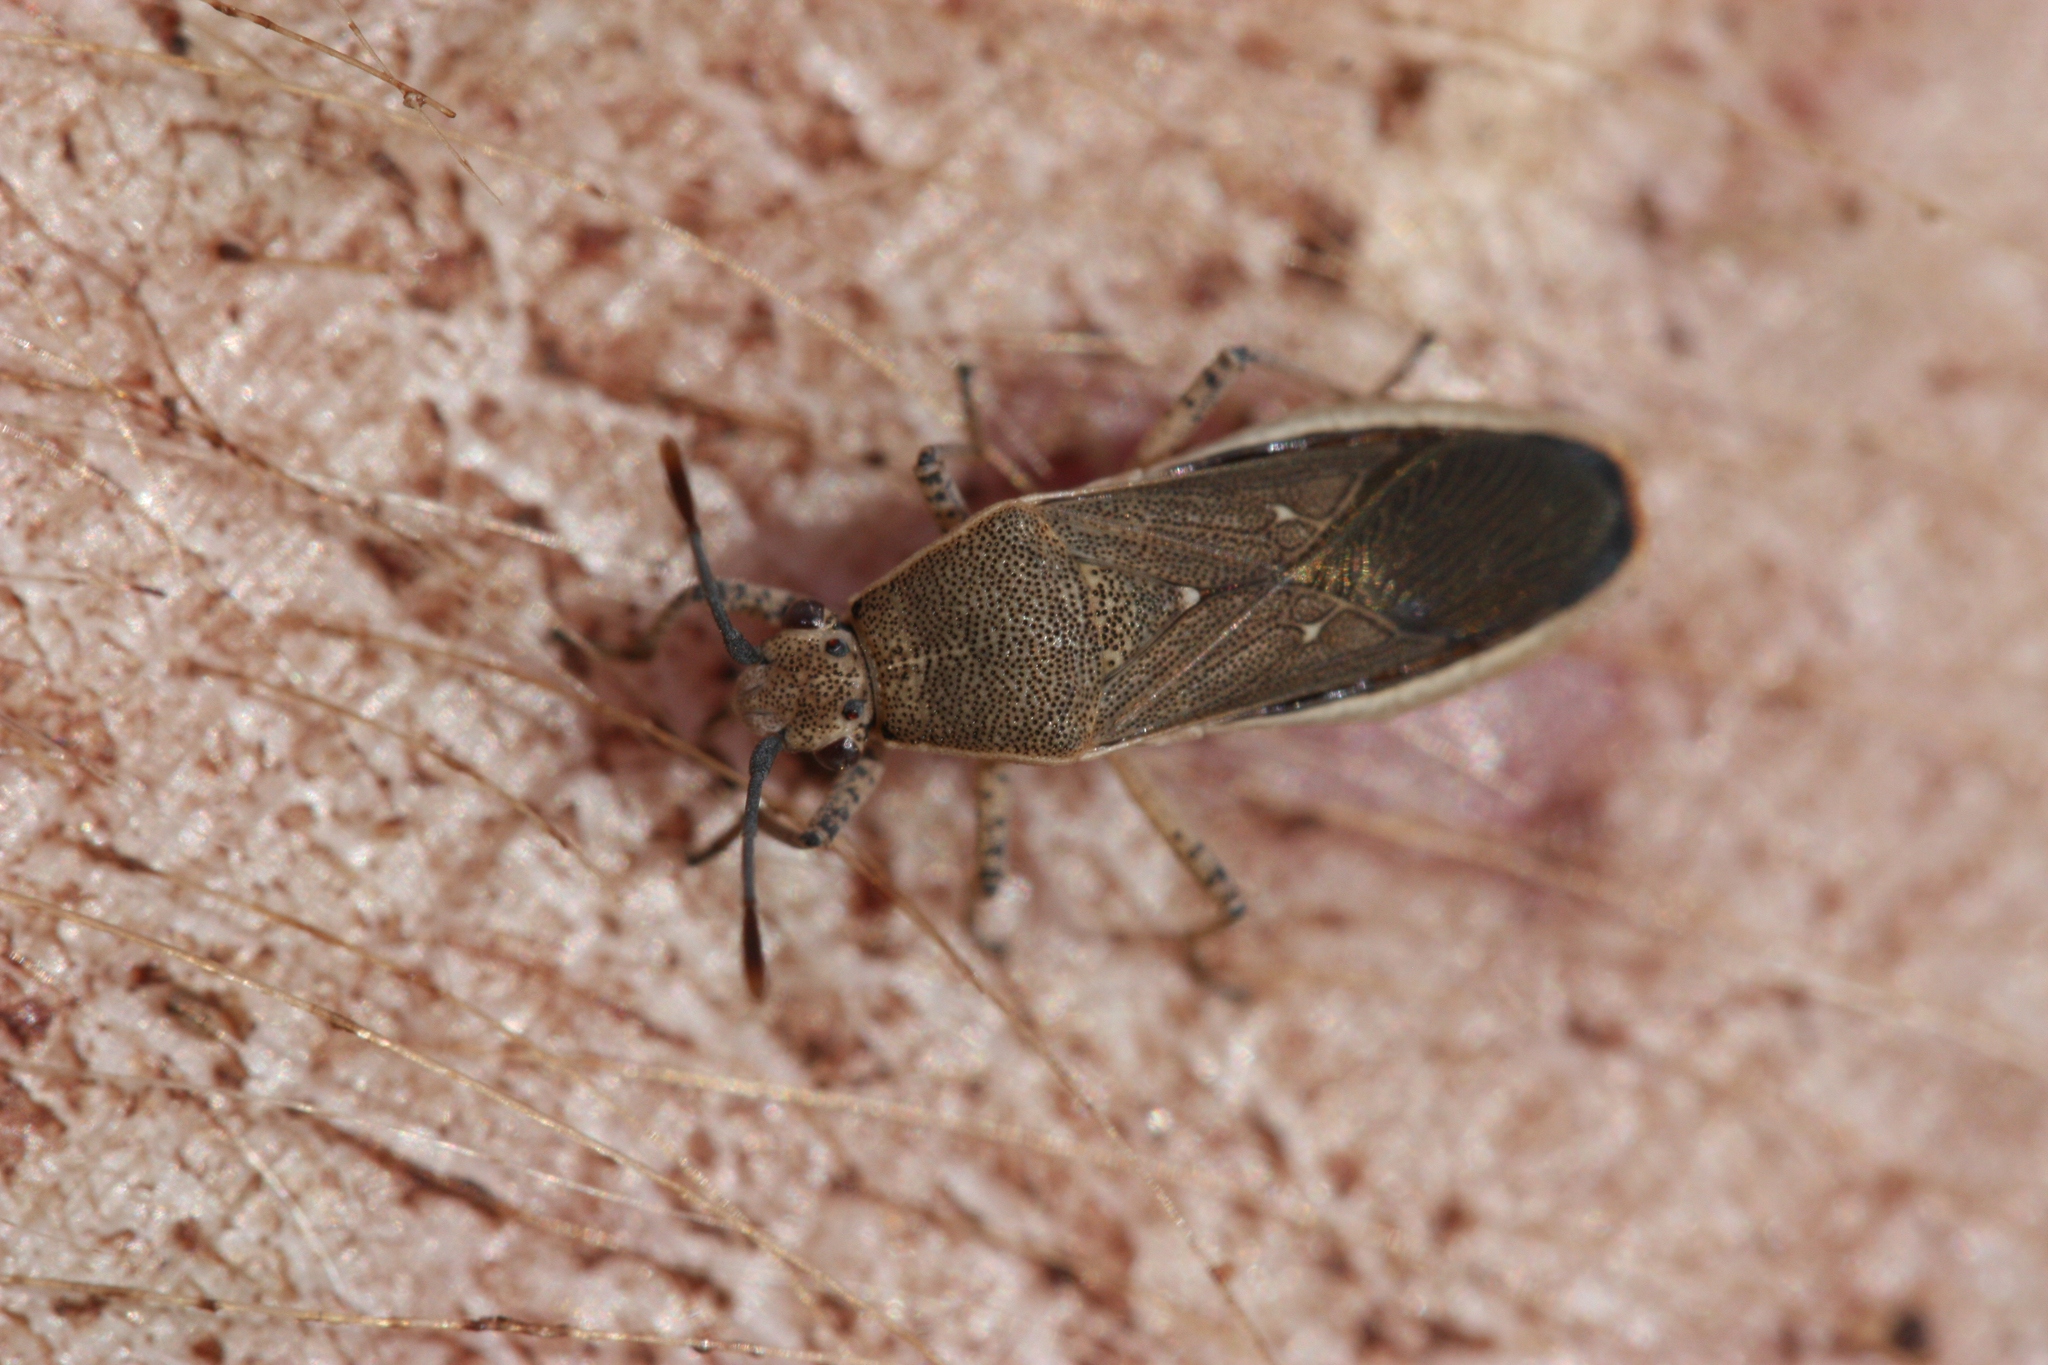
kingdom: Animalia
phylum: Arthropoda
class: Insecta
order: Hemiptera
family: Coreidae
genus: Catorhintha
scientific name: Catorhintha selector
